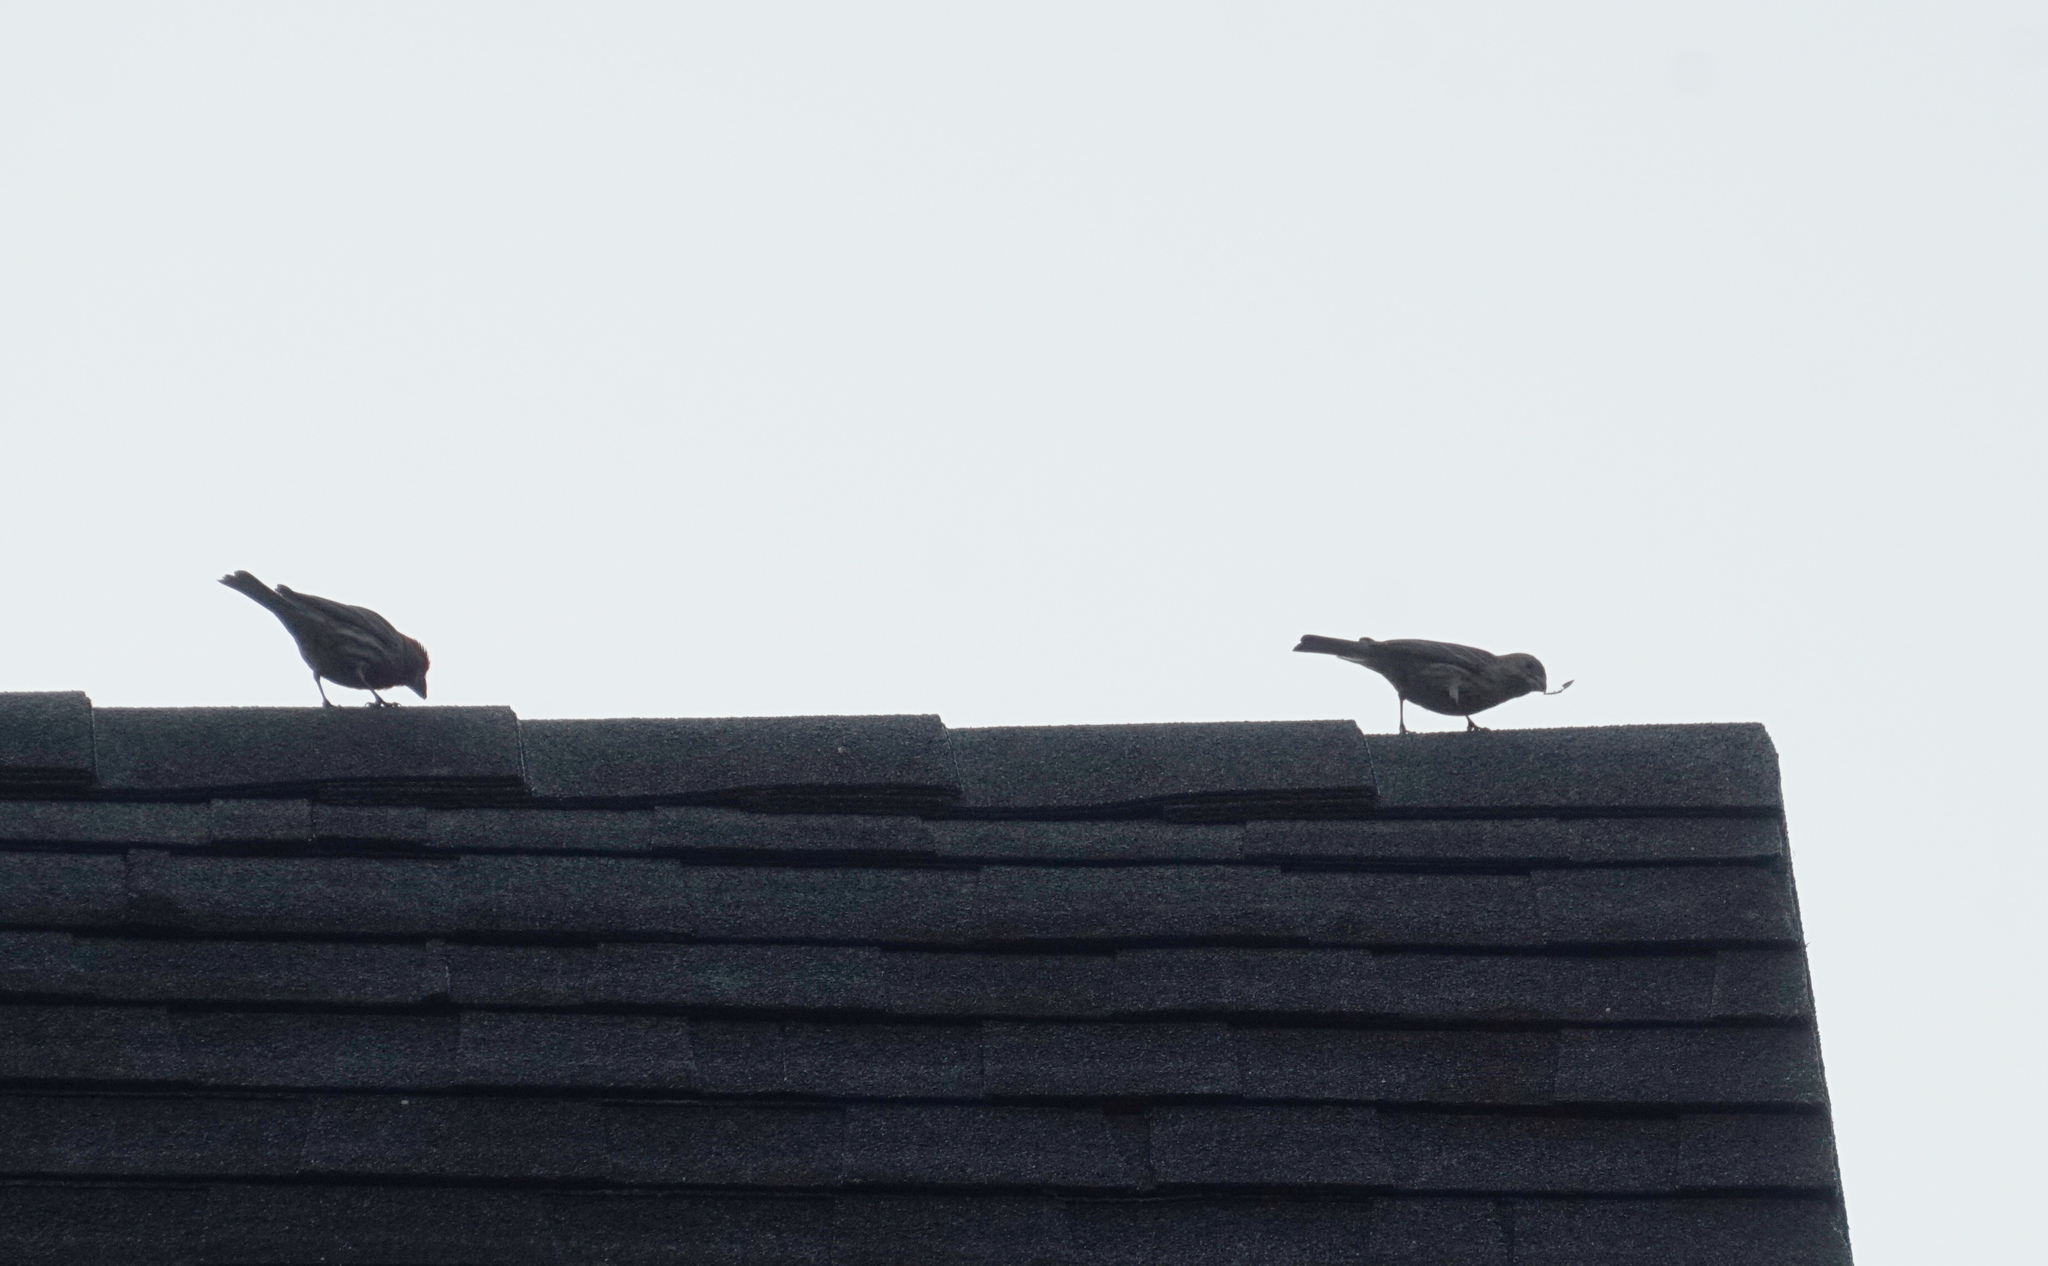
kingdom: Animalia
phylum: Chordata
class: Aves
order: Passeriformes
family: Fringillidae
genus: Haemorhous
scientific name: Haemorhous mexicanus
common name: House finch
